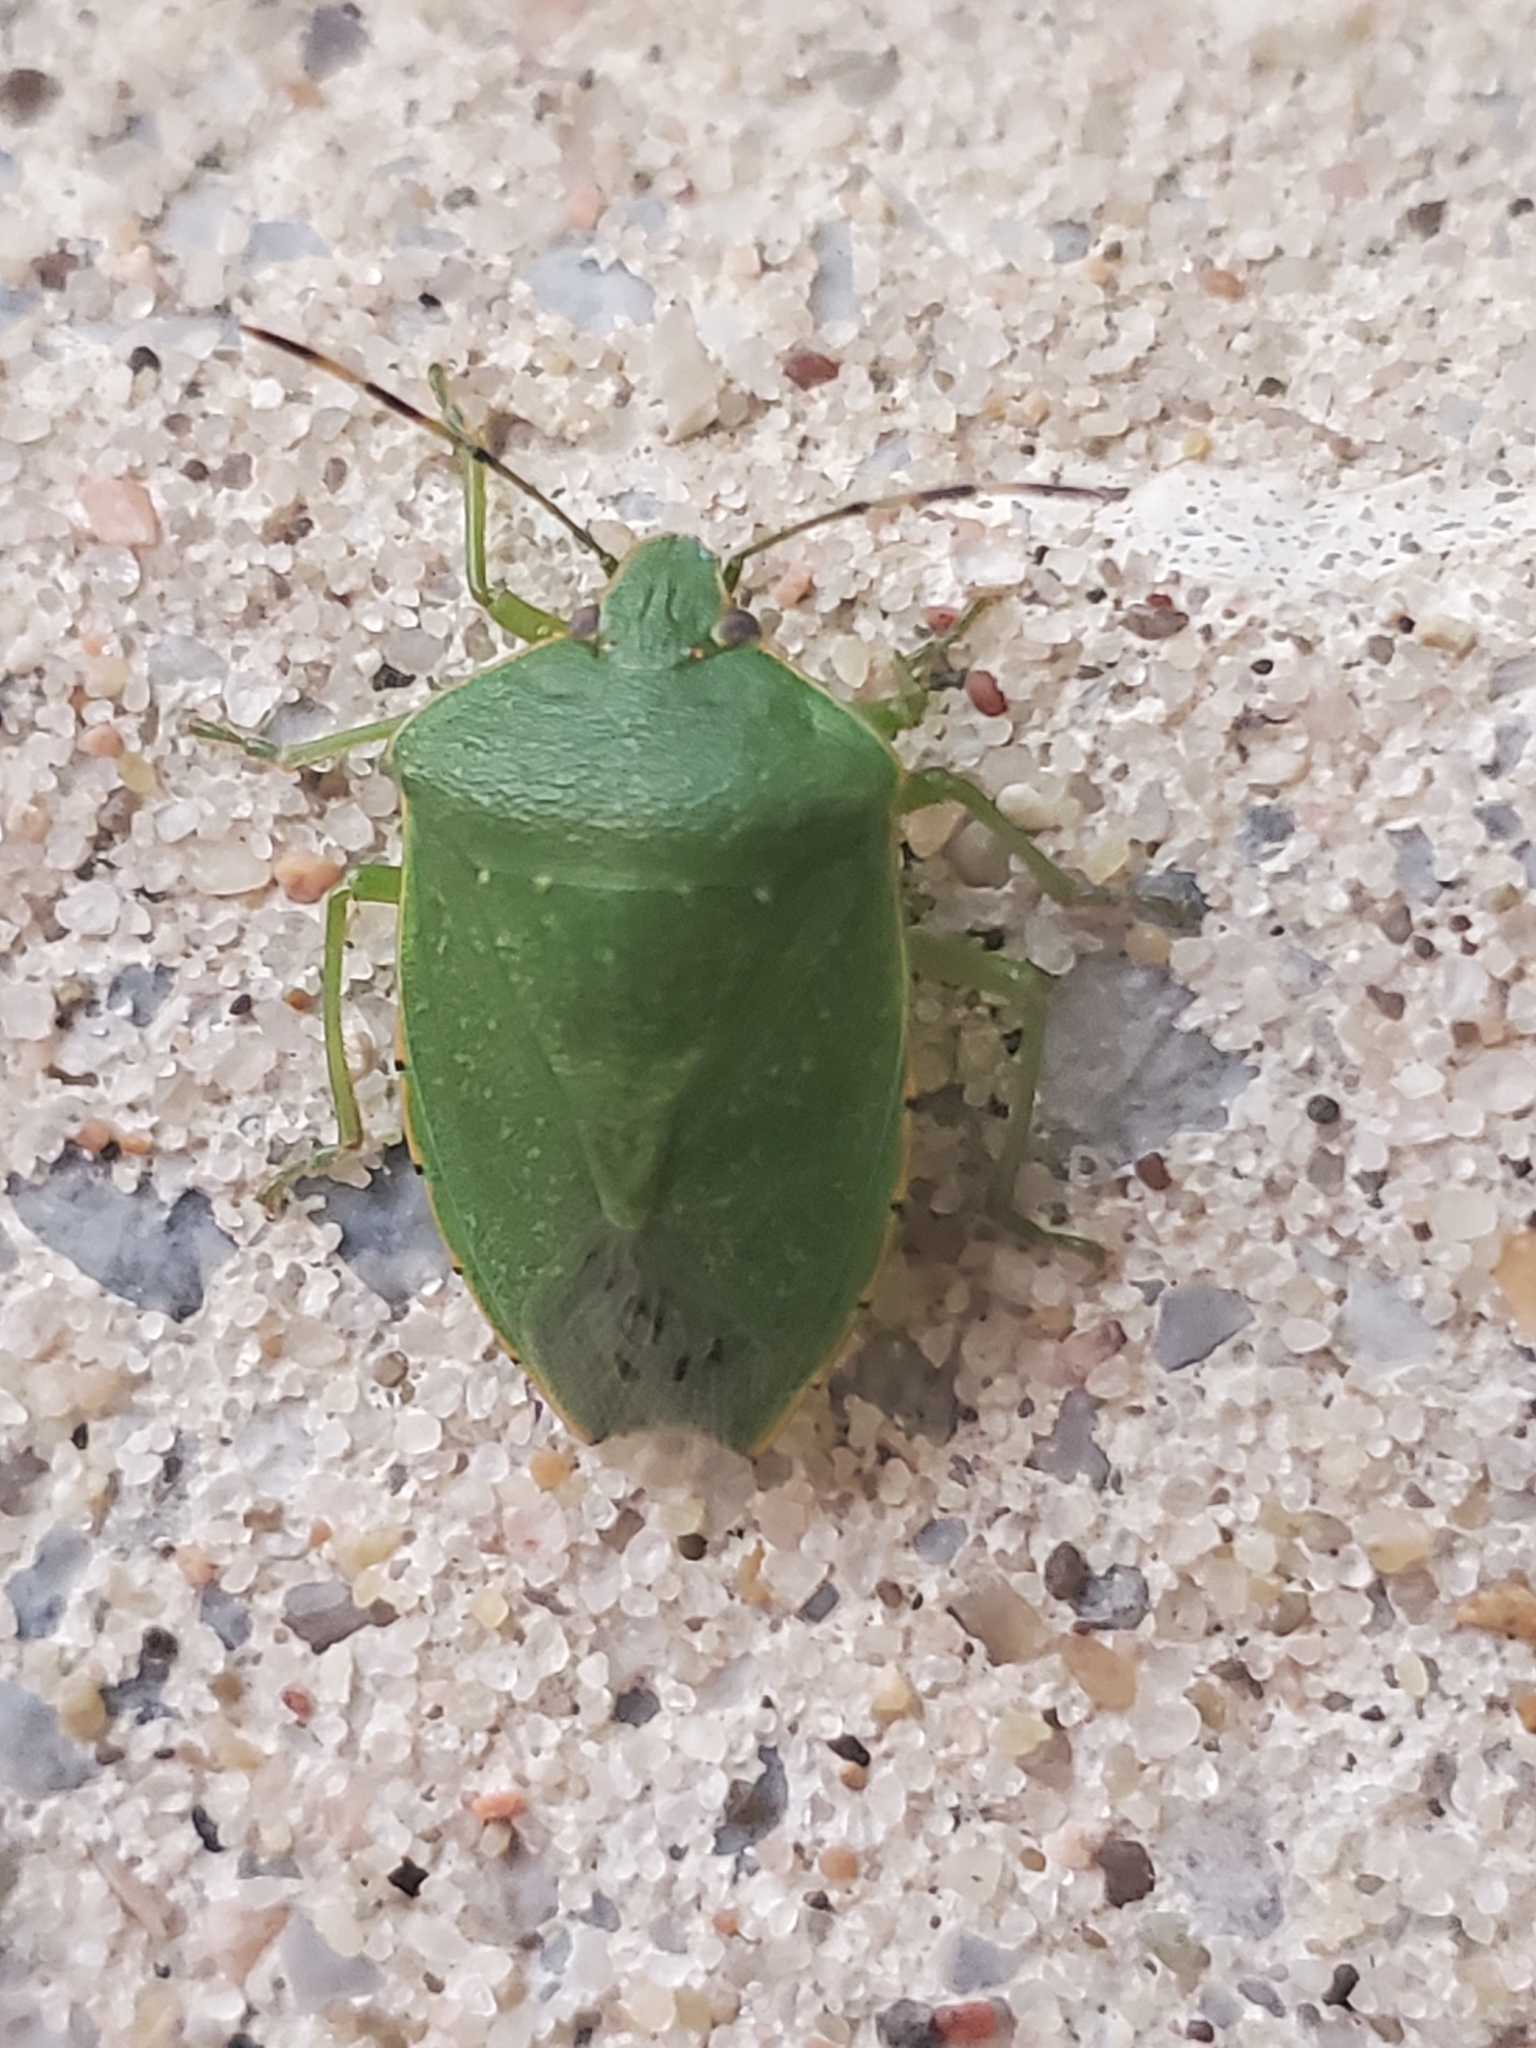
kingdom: Animalia
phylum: Arthropoda
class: Insecta
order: Hemiptera
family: Pentatomidae
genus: Chinavia
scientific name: Chinavia hilaris
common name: Green stink bug
